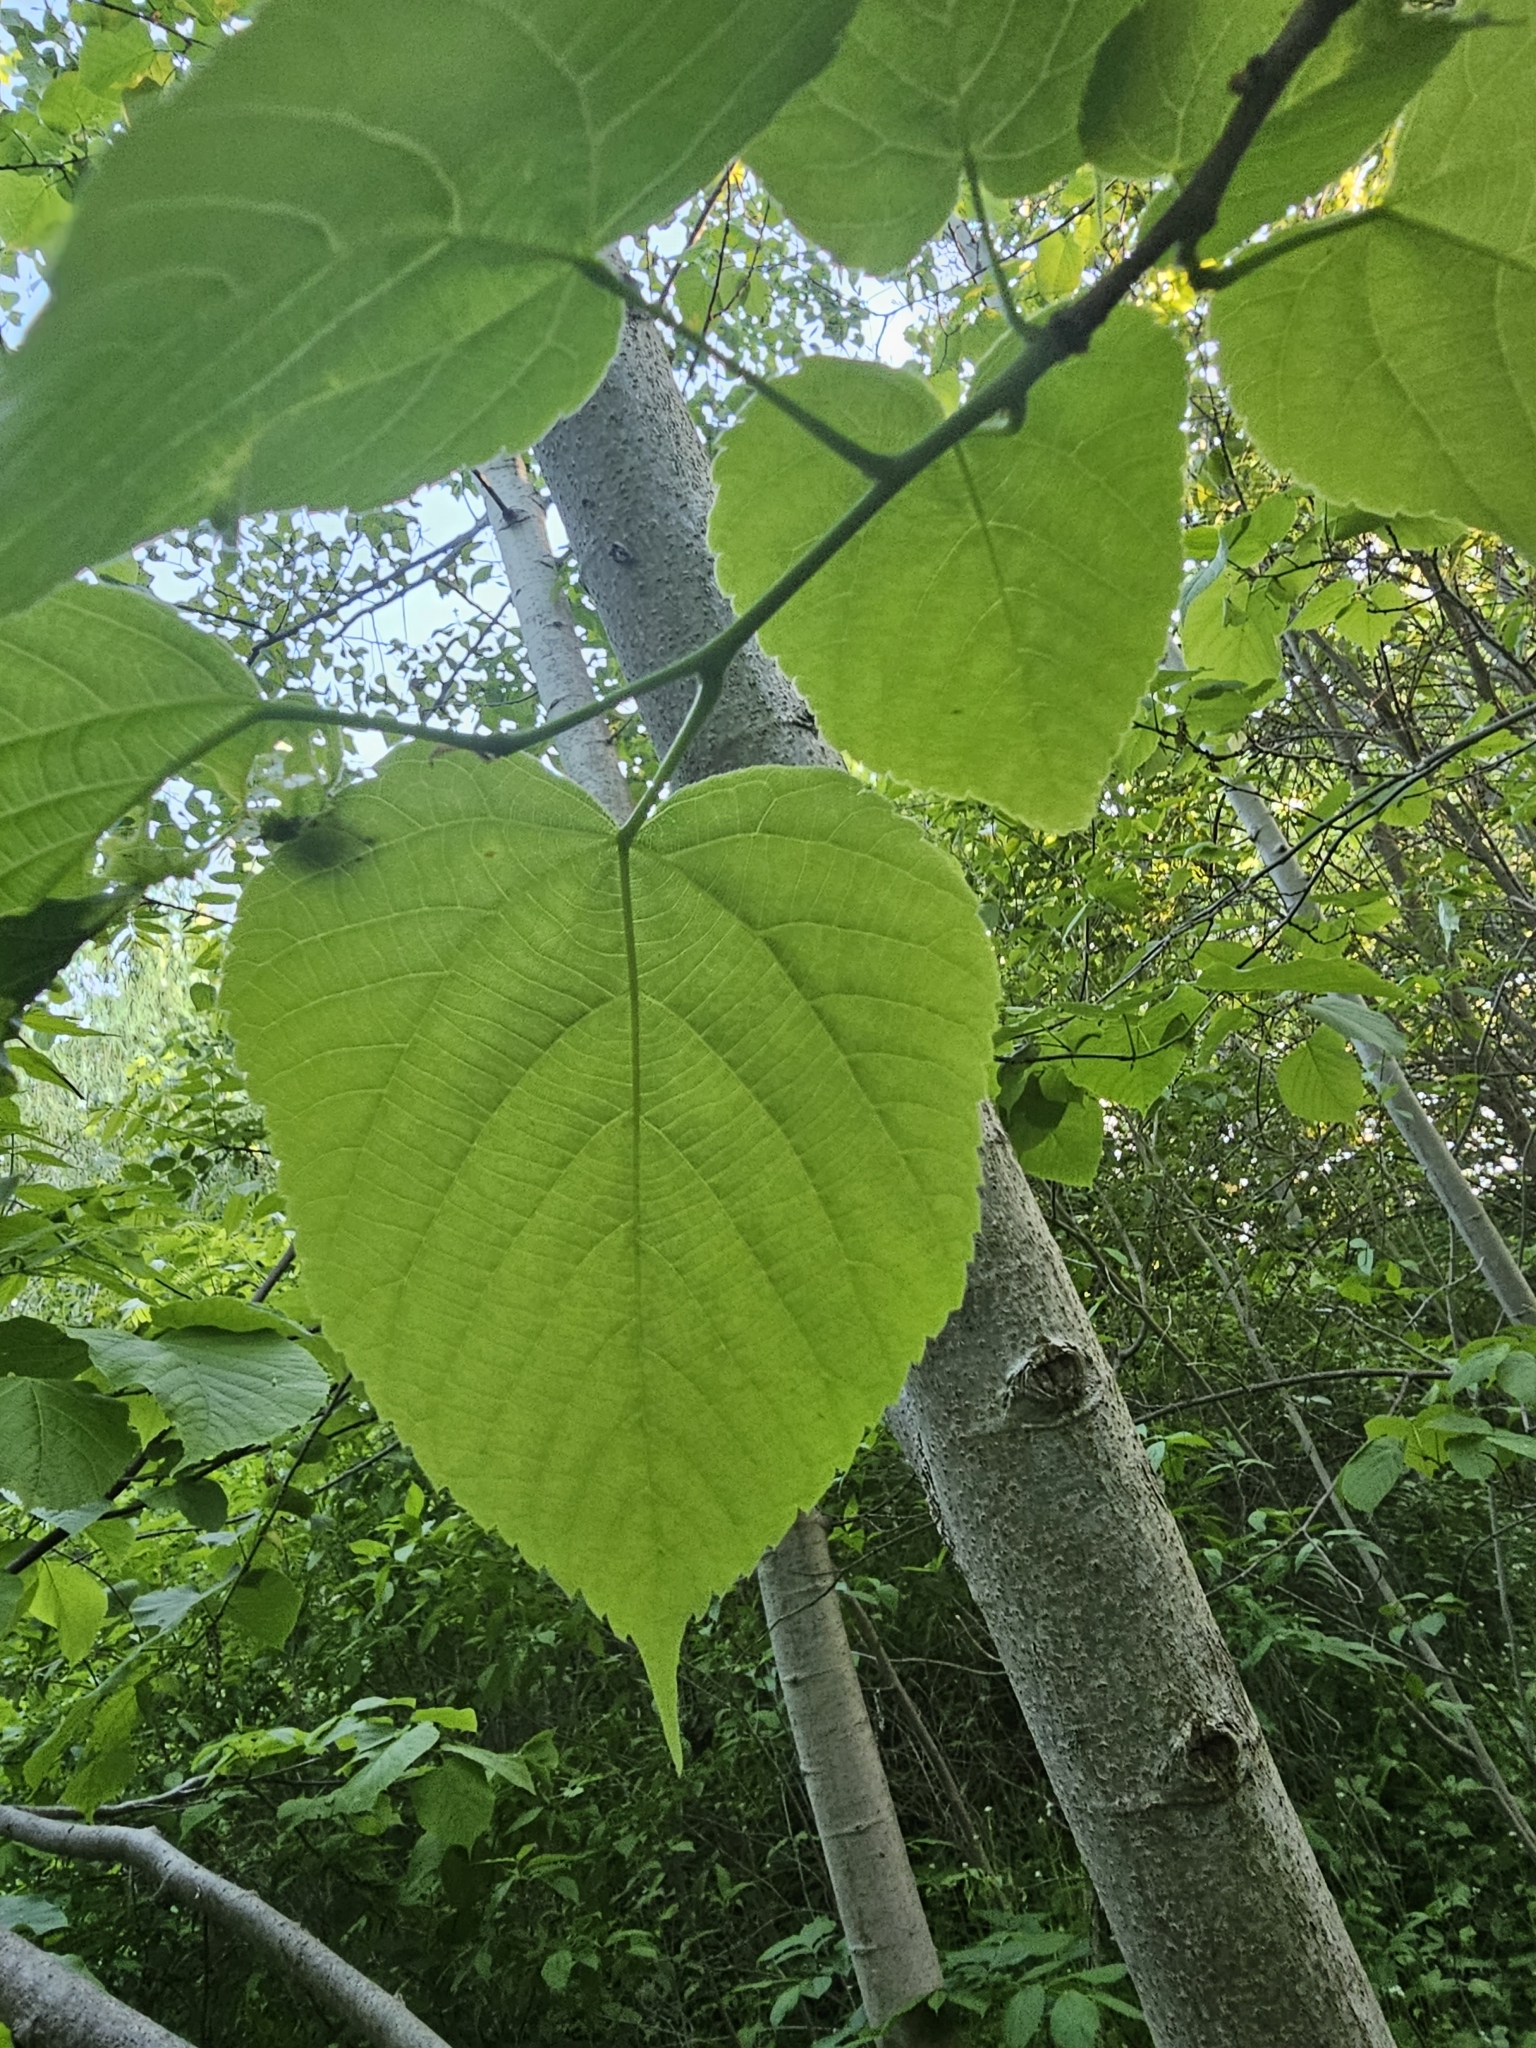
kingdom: Plantae
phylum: Tracheophyta
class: Magnoliopsida
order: Malvales
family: Malvaceae
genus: Tilia
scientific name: Tilia americana
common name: Basswood
